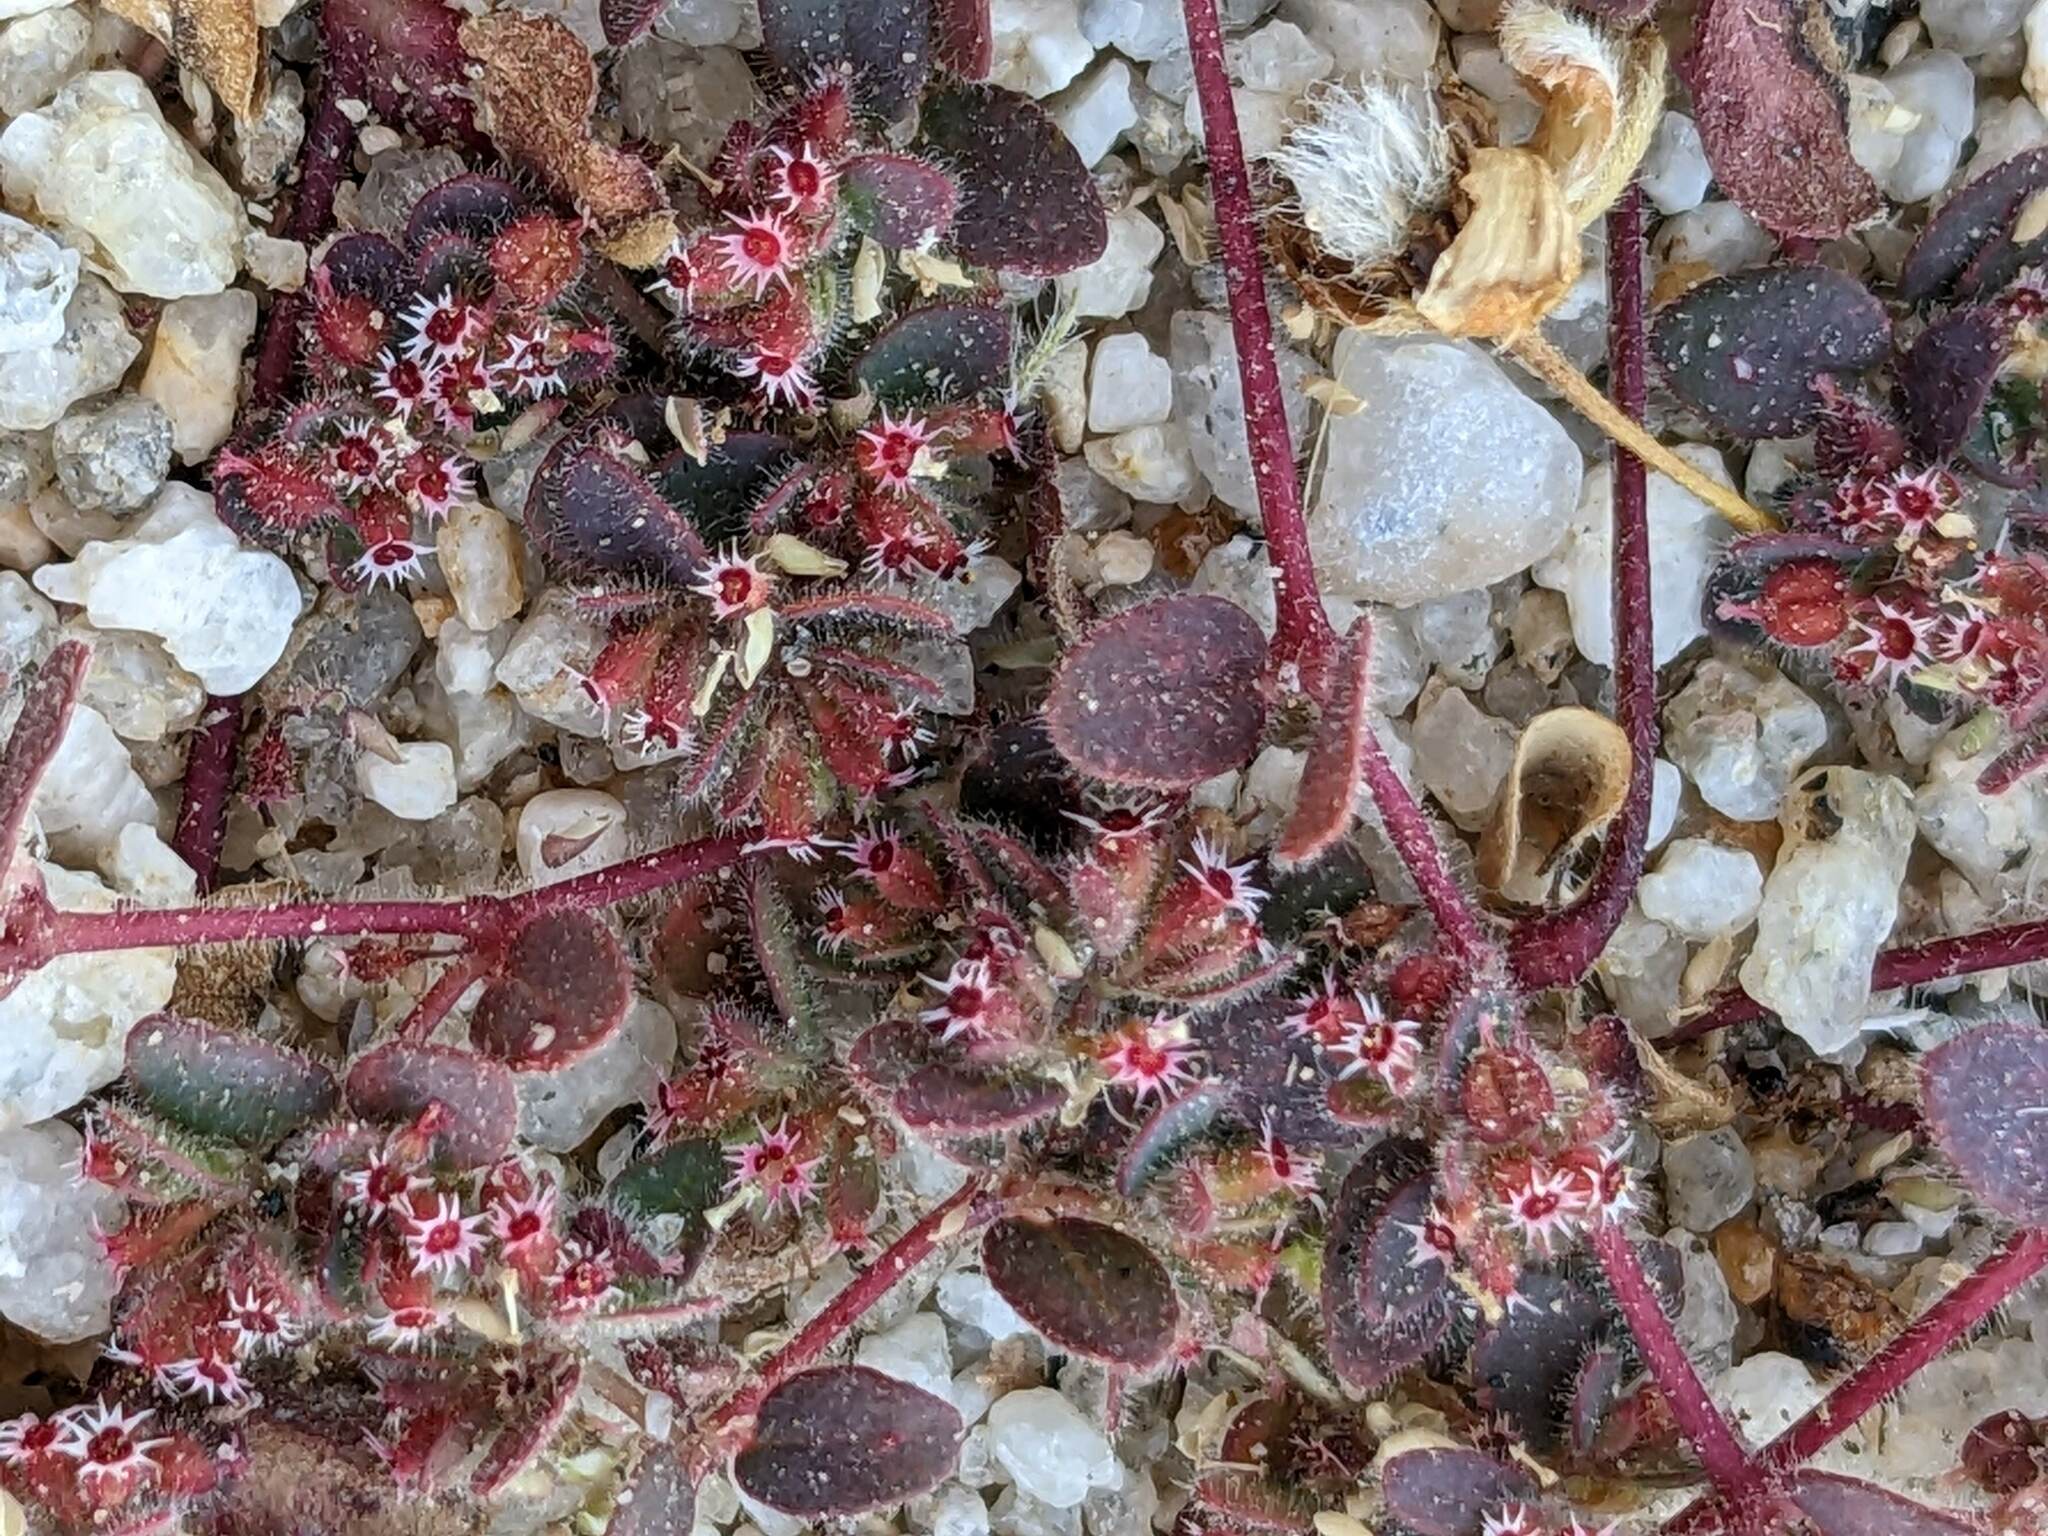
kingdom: Plantae
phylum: Tracheophyta
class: Magnoliopsida
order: Malpighiales
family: Euphorbiaceae
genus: Euphorbia
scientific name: Euphorbia setiloba
